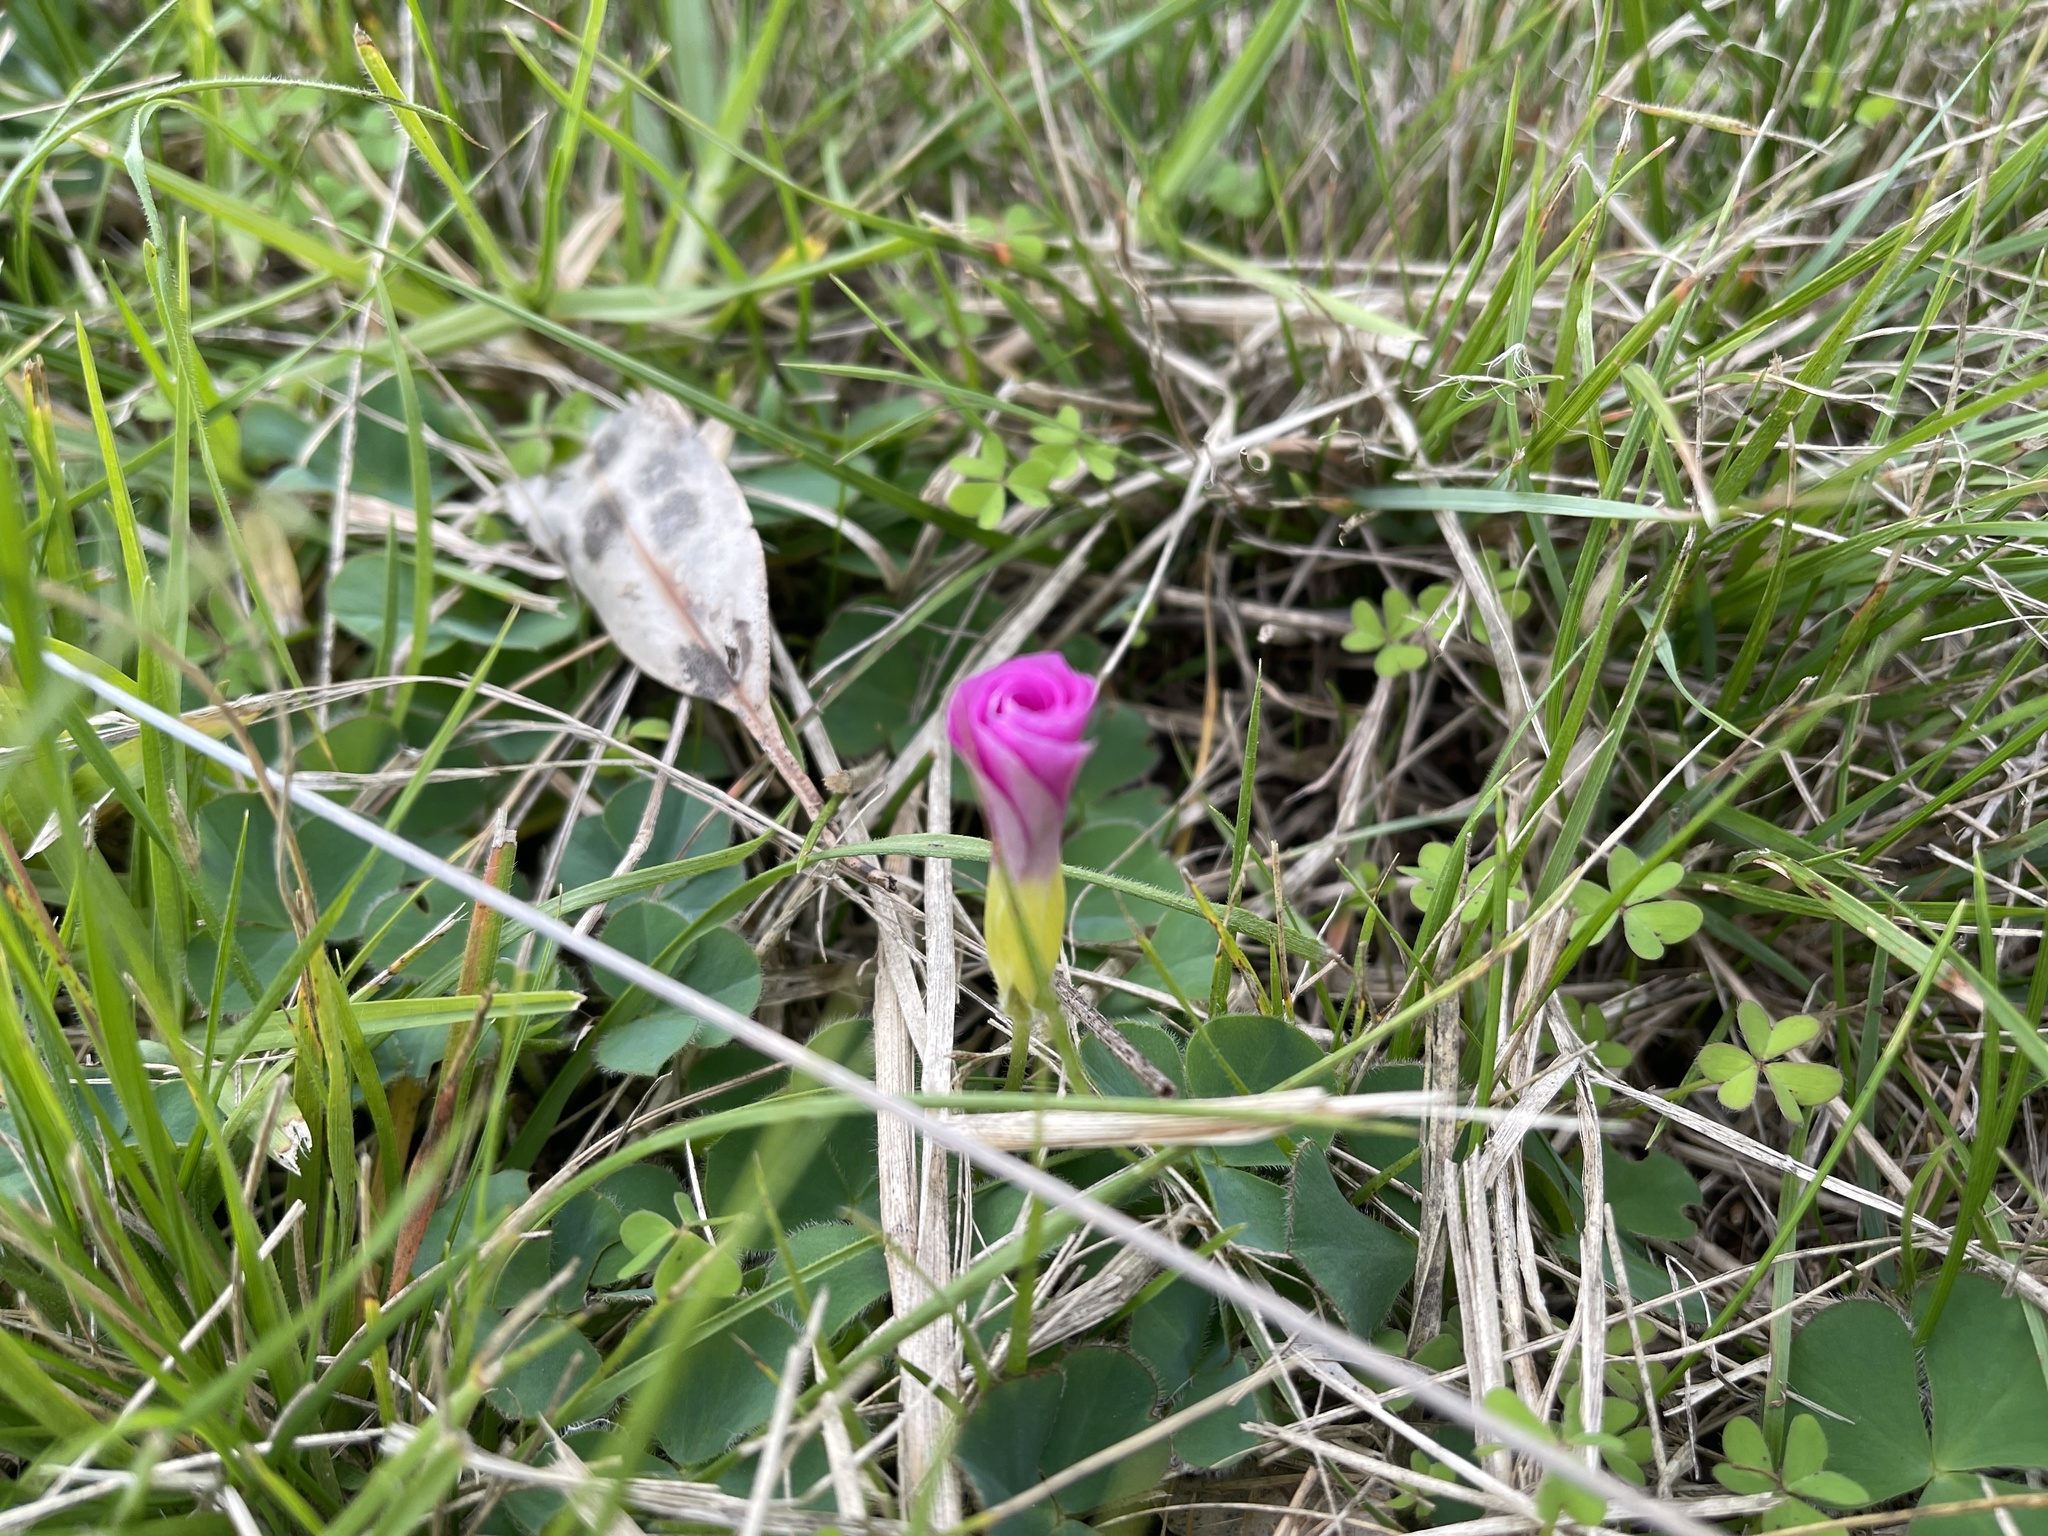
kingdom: Plantae
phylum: Tracheophyta
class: Magnoliopsida
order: Oxalidales
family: Oxalidaceae
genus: Oxalis
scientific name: Oxalis purpurea
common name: Purple woodsorrel
